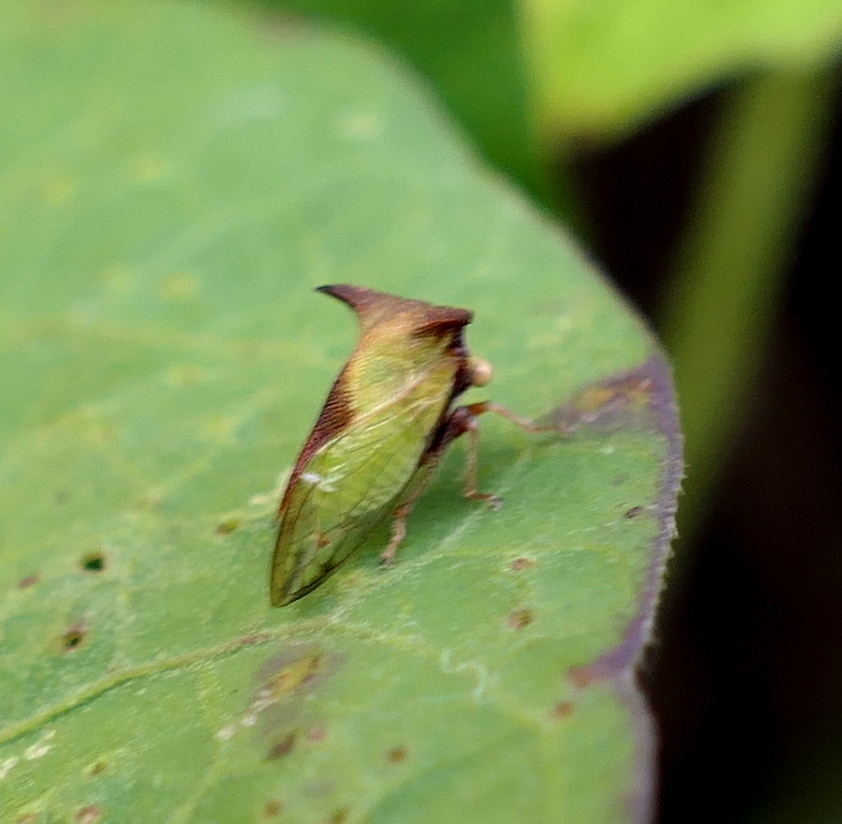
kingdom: Animalia
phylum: Arthropoda
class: Insecta
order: Hemiptera
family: Membracidae
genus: Ceresa
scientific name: Ceresa ustulata
